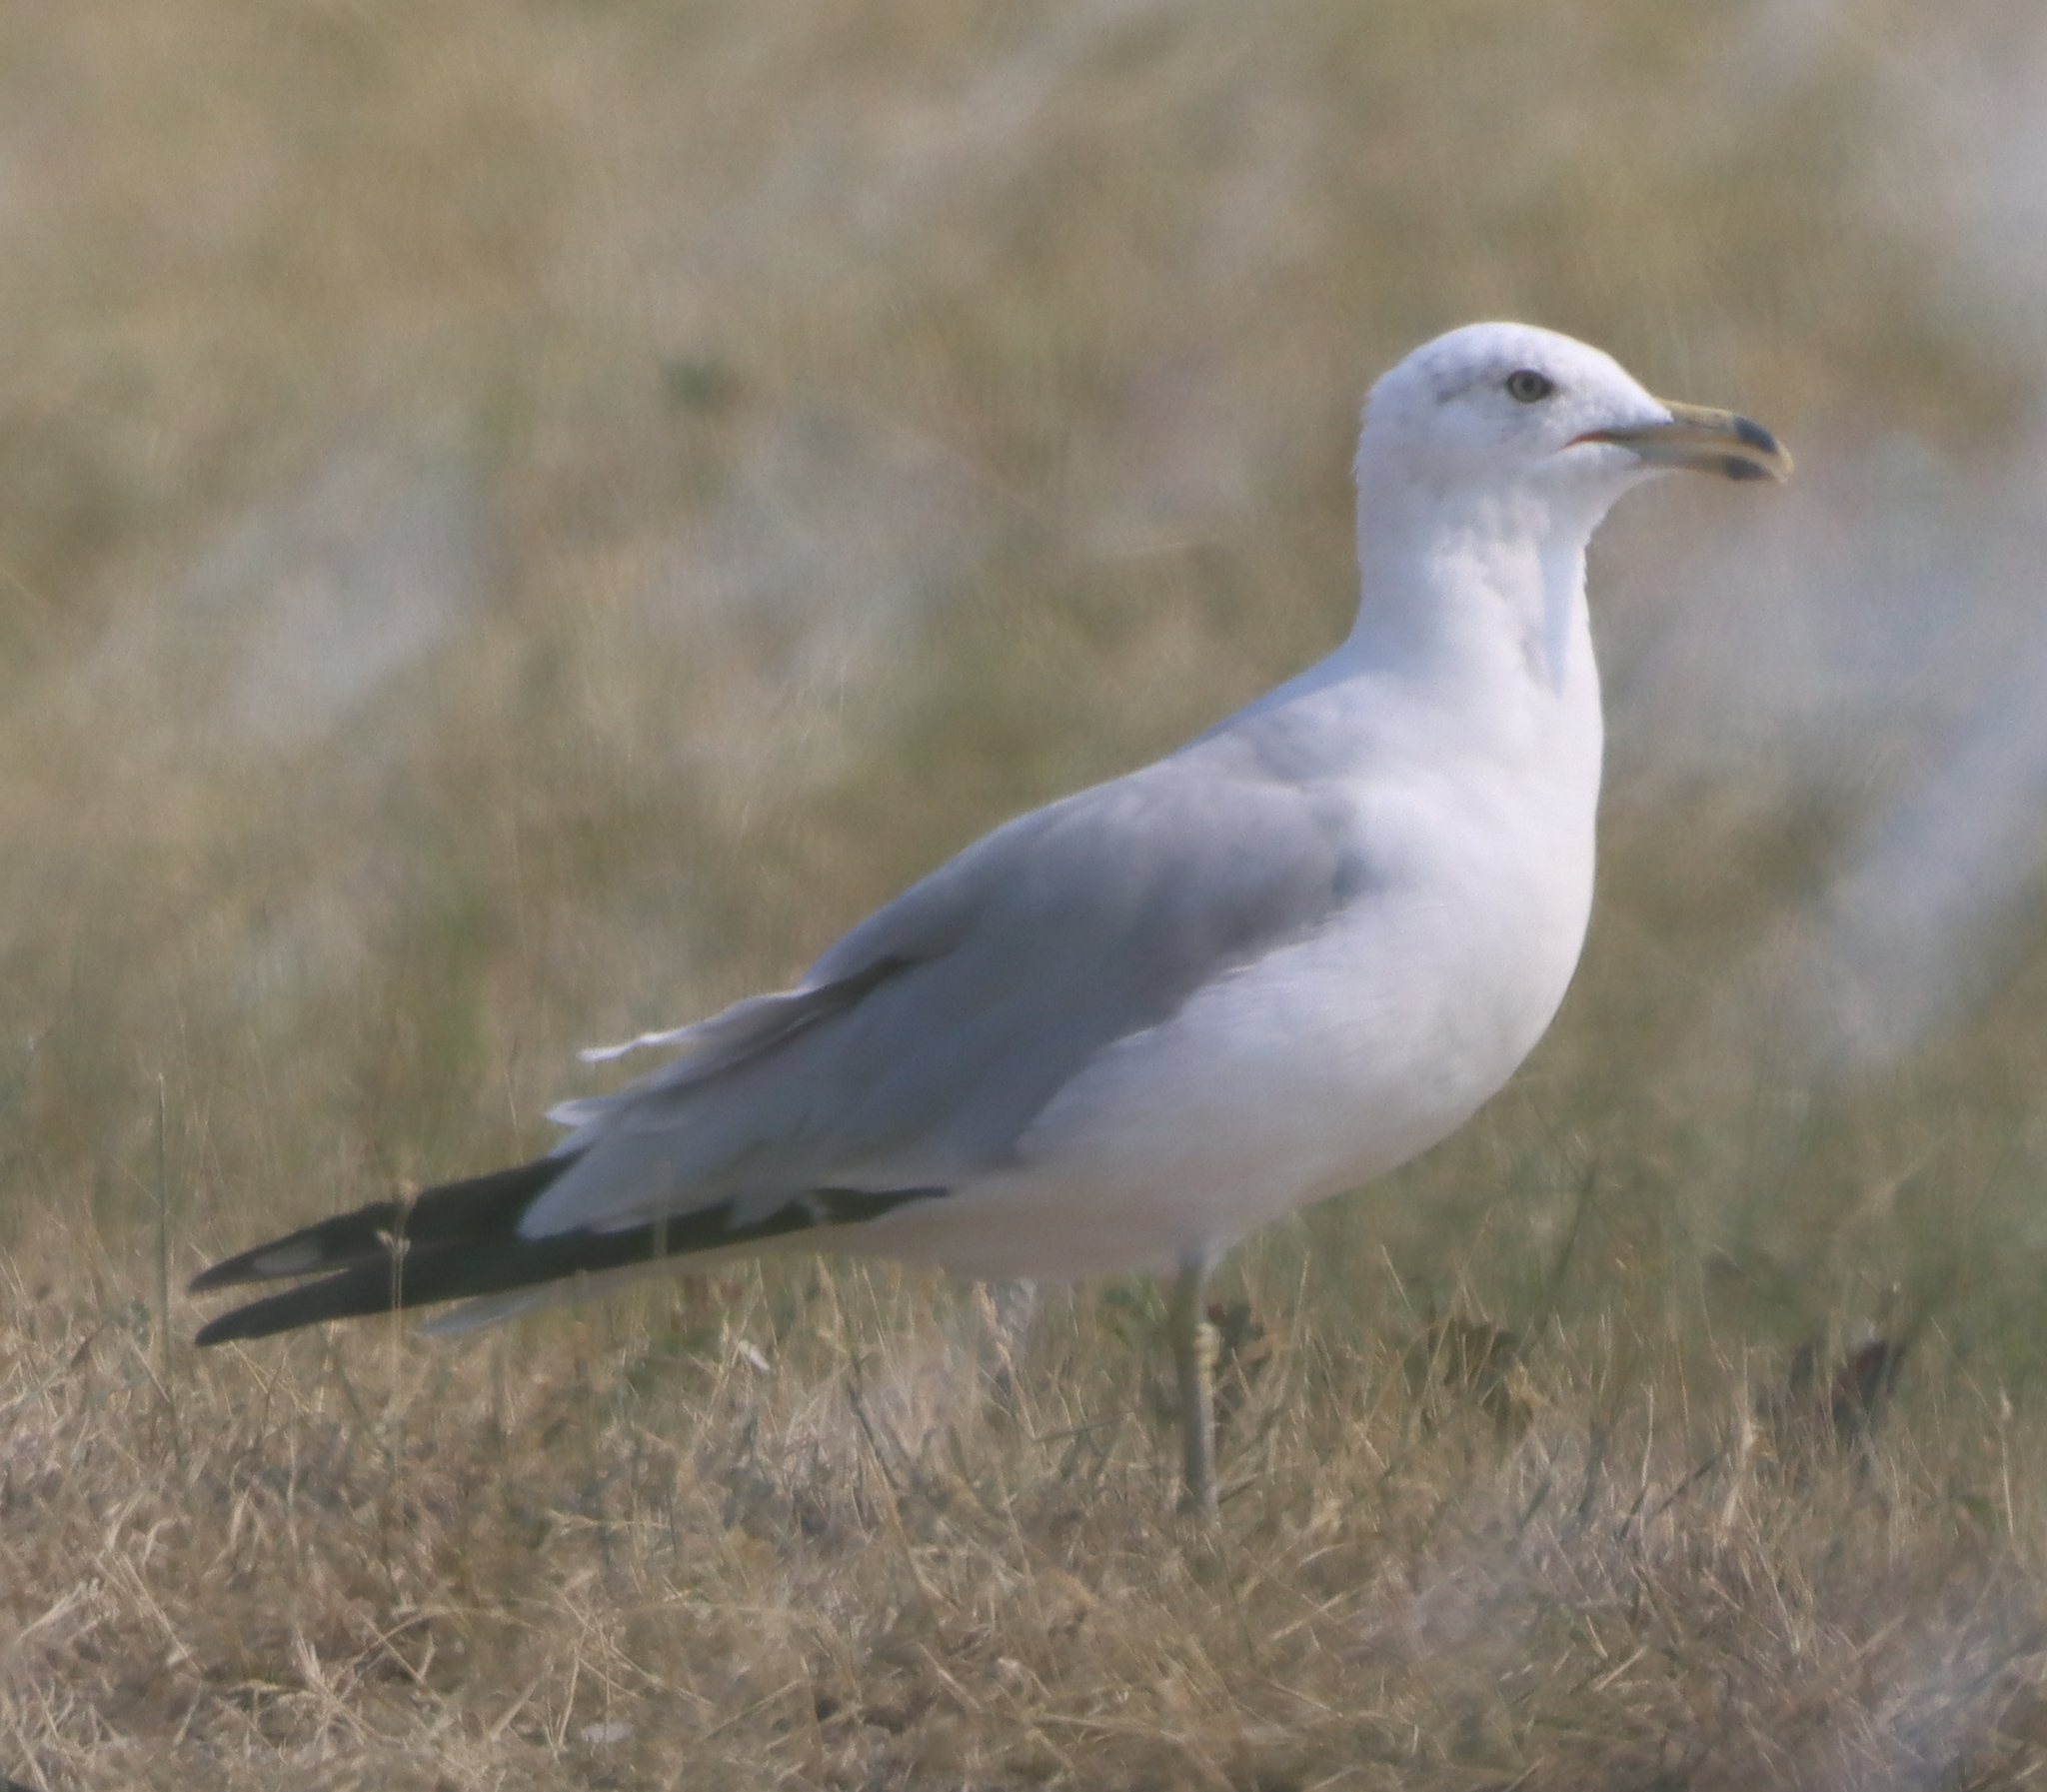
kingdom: Animalia
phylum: Chordata
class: Aves
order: Charadriiformes
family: Laridae
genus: Larus
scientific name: Larus delawarensis
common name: Ring-billed gull
